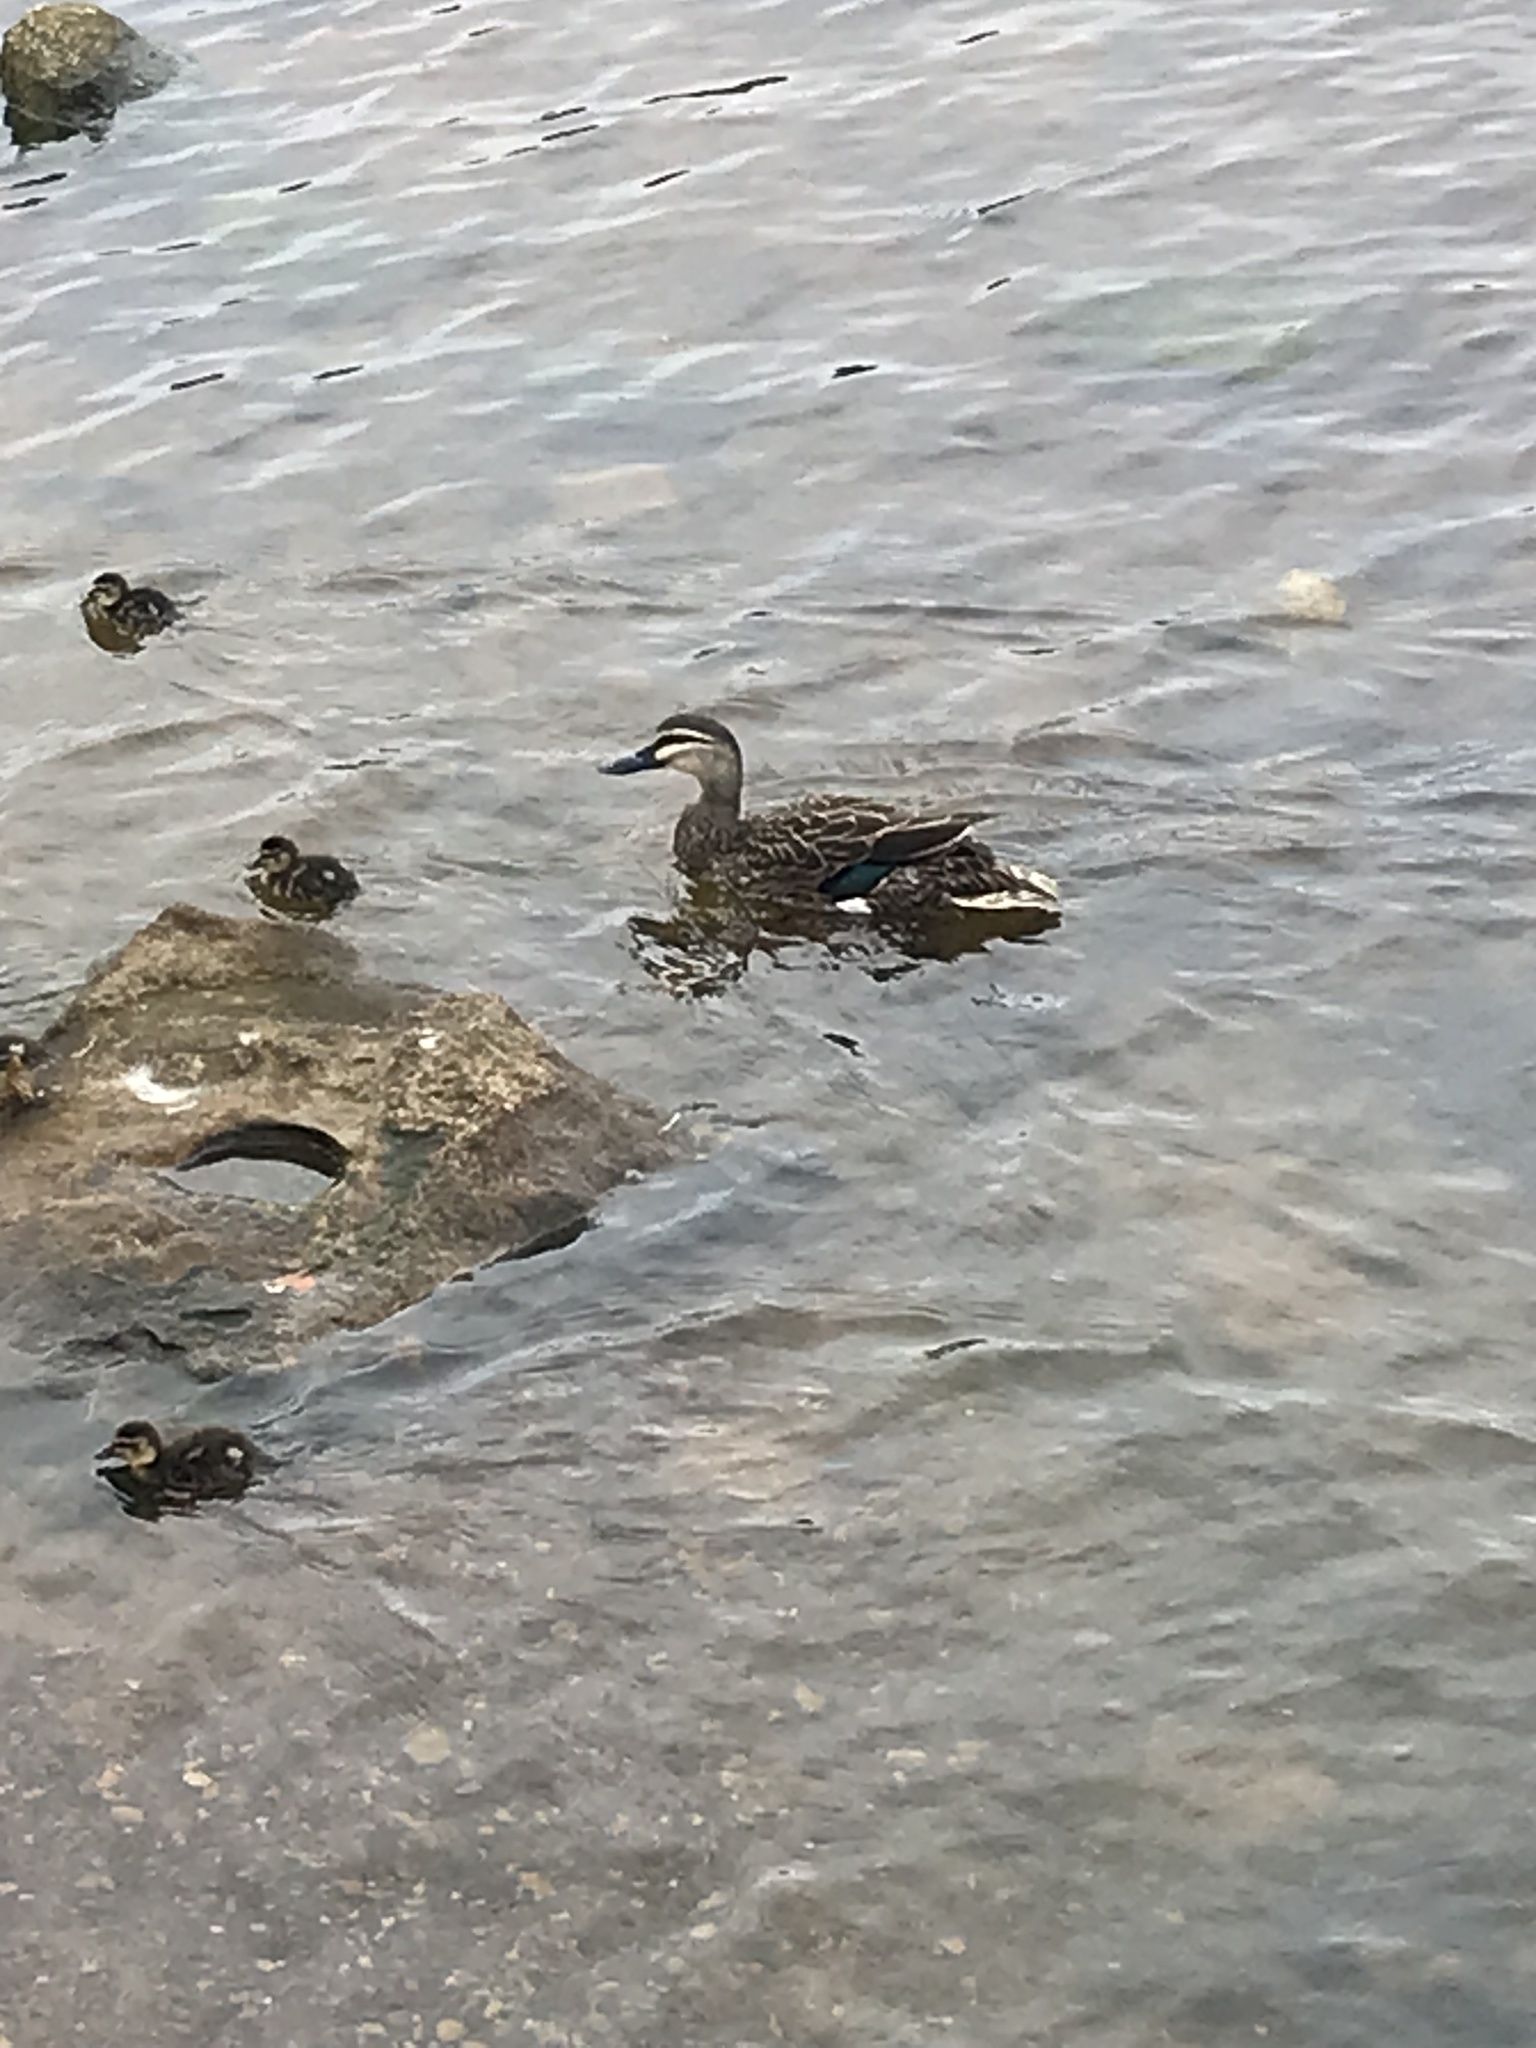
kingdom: Animalia
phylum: Chordata
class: Aves
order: Anseriformes
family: Anatidae
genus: Anas
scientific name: Anas
